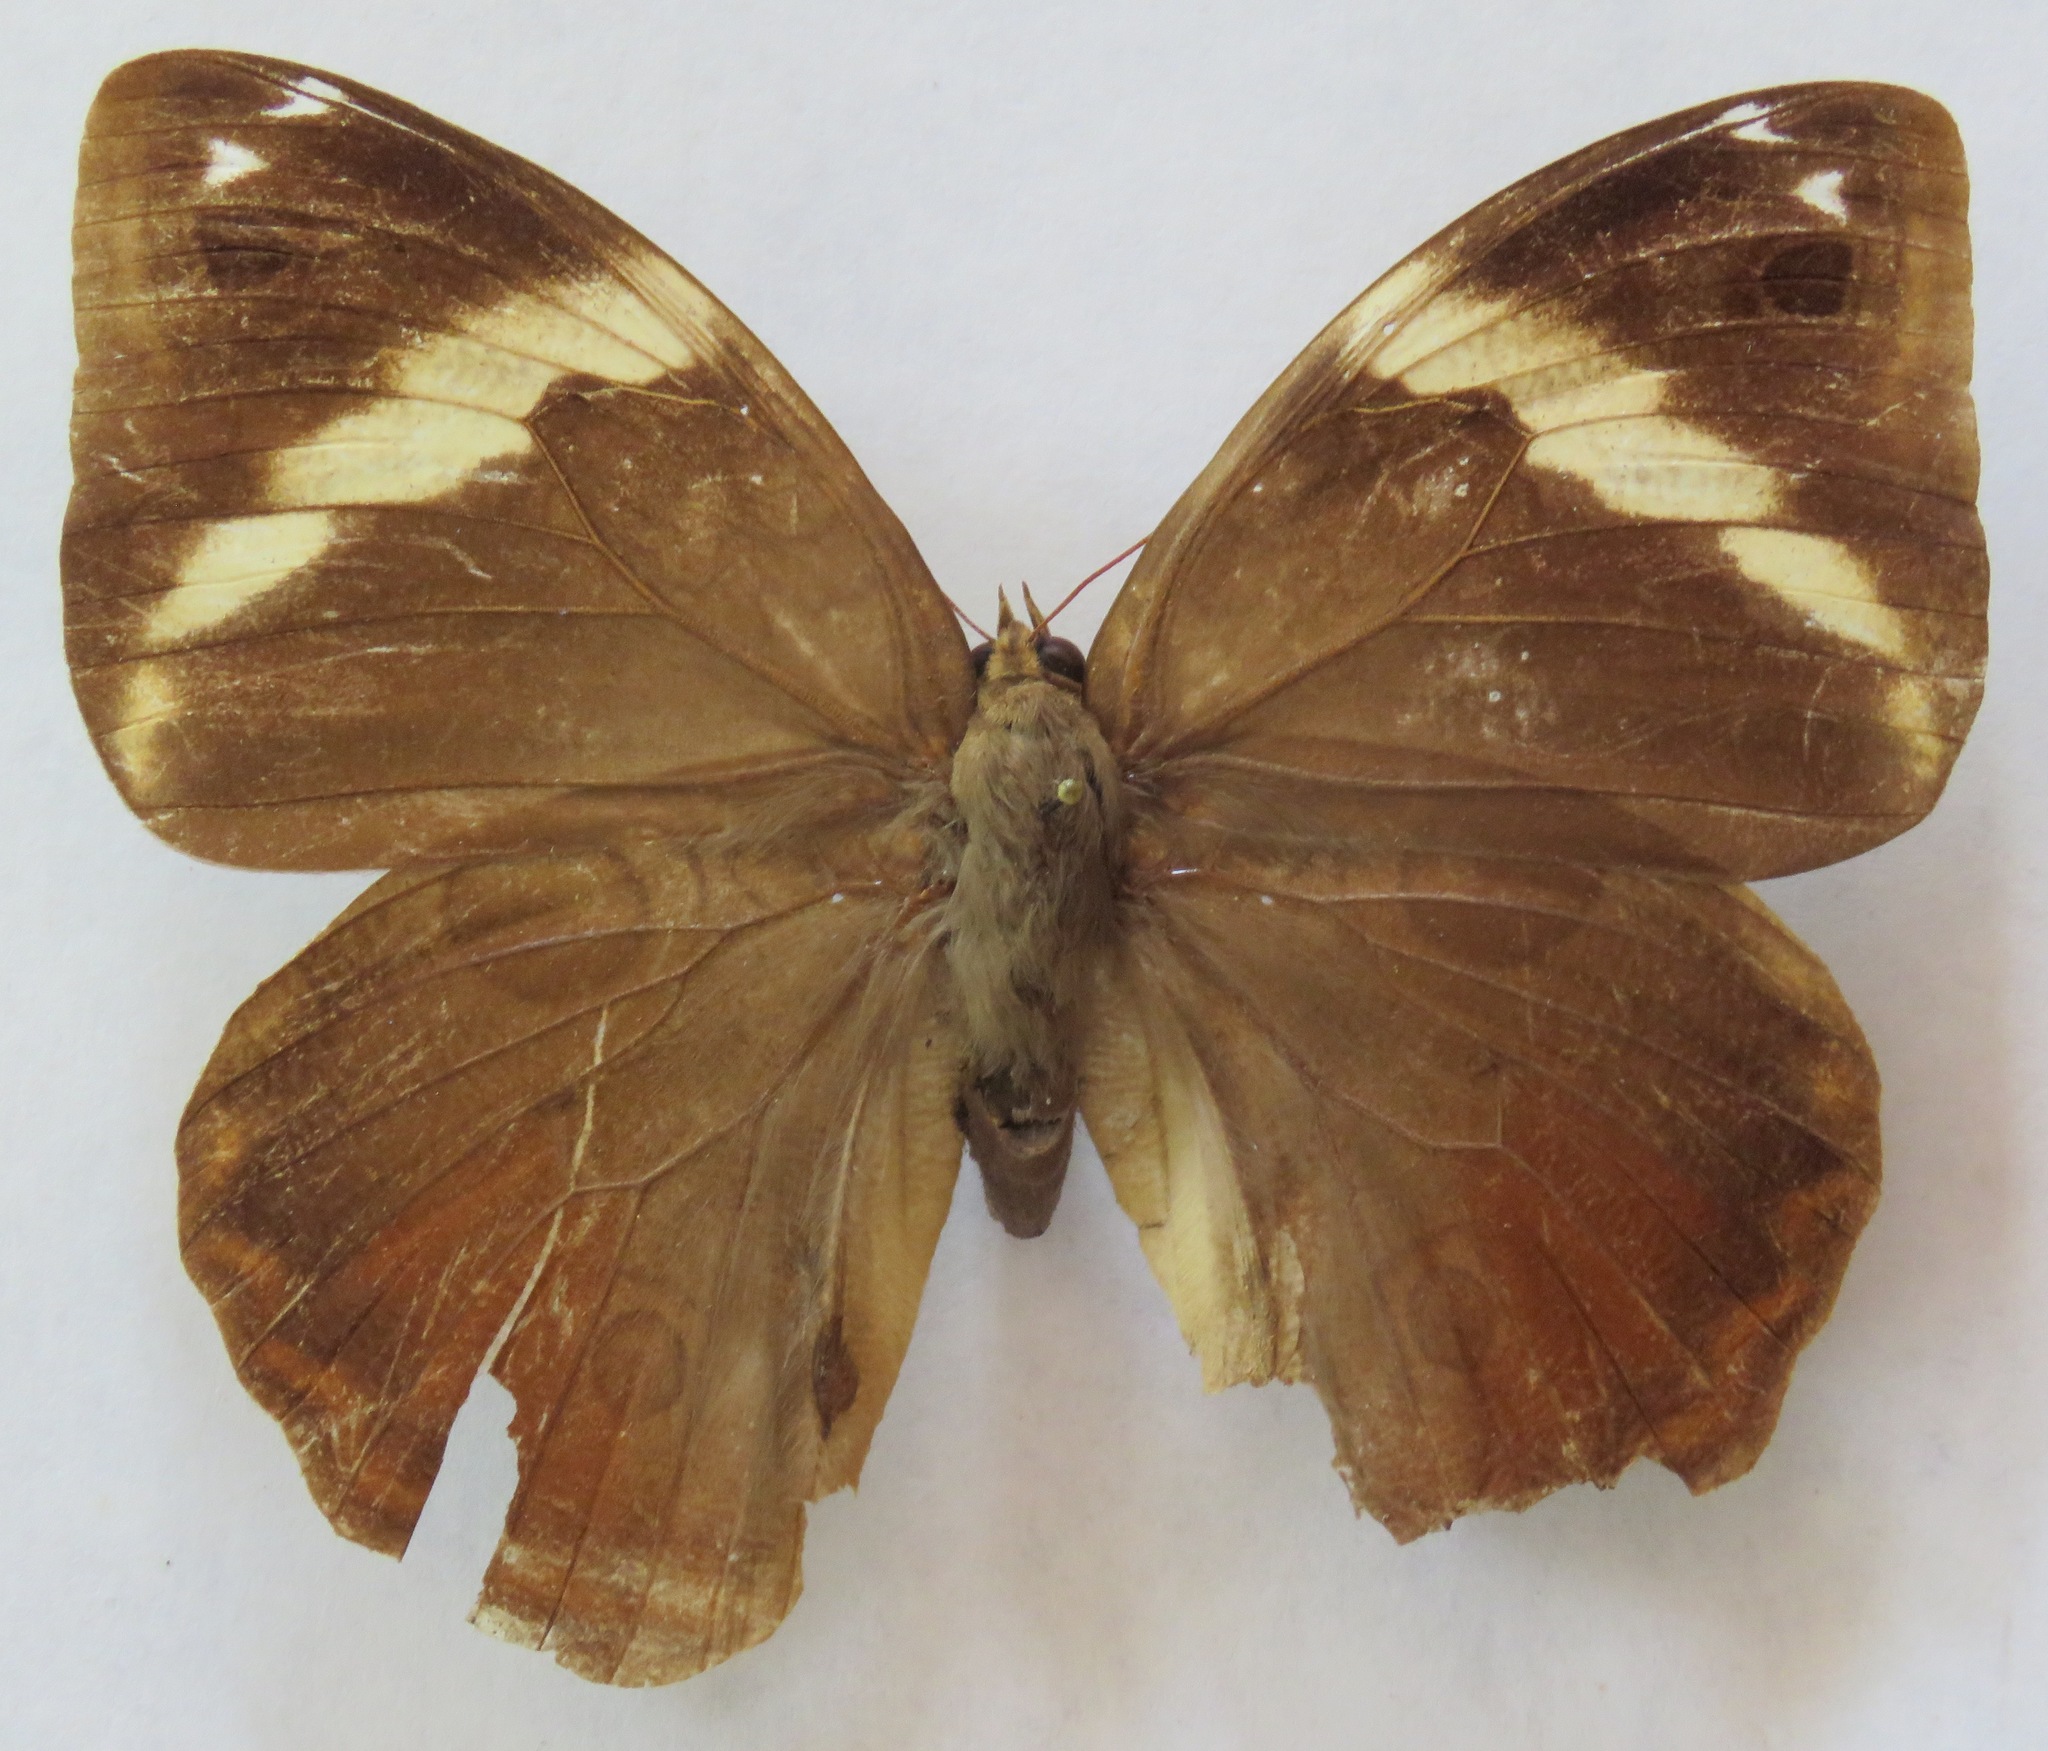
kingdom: Animalia
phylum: Arthropoda
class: Insecta
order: Lepidoptera
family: Nymphalidae
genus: Opsiphanes
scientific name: Opsiphanes cassiae
